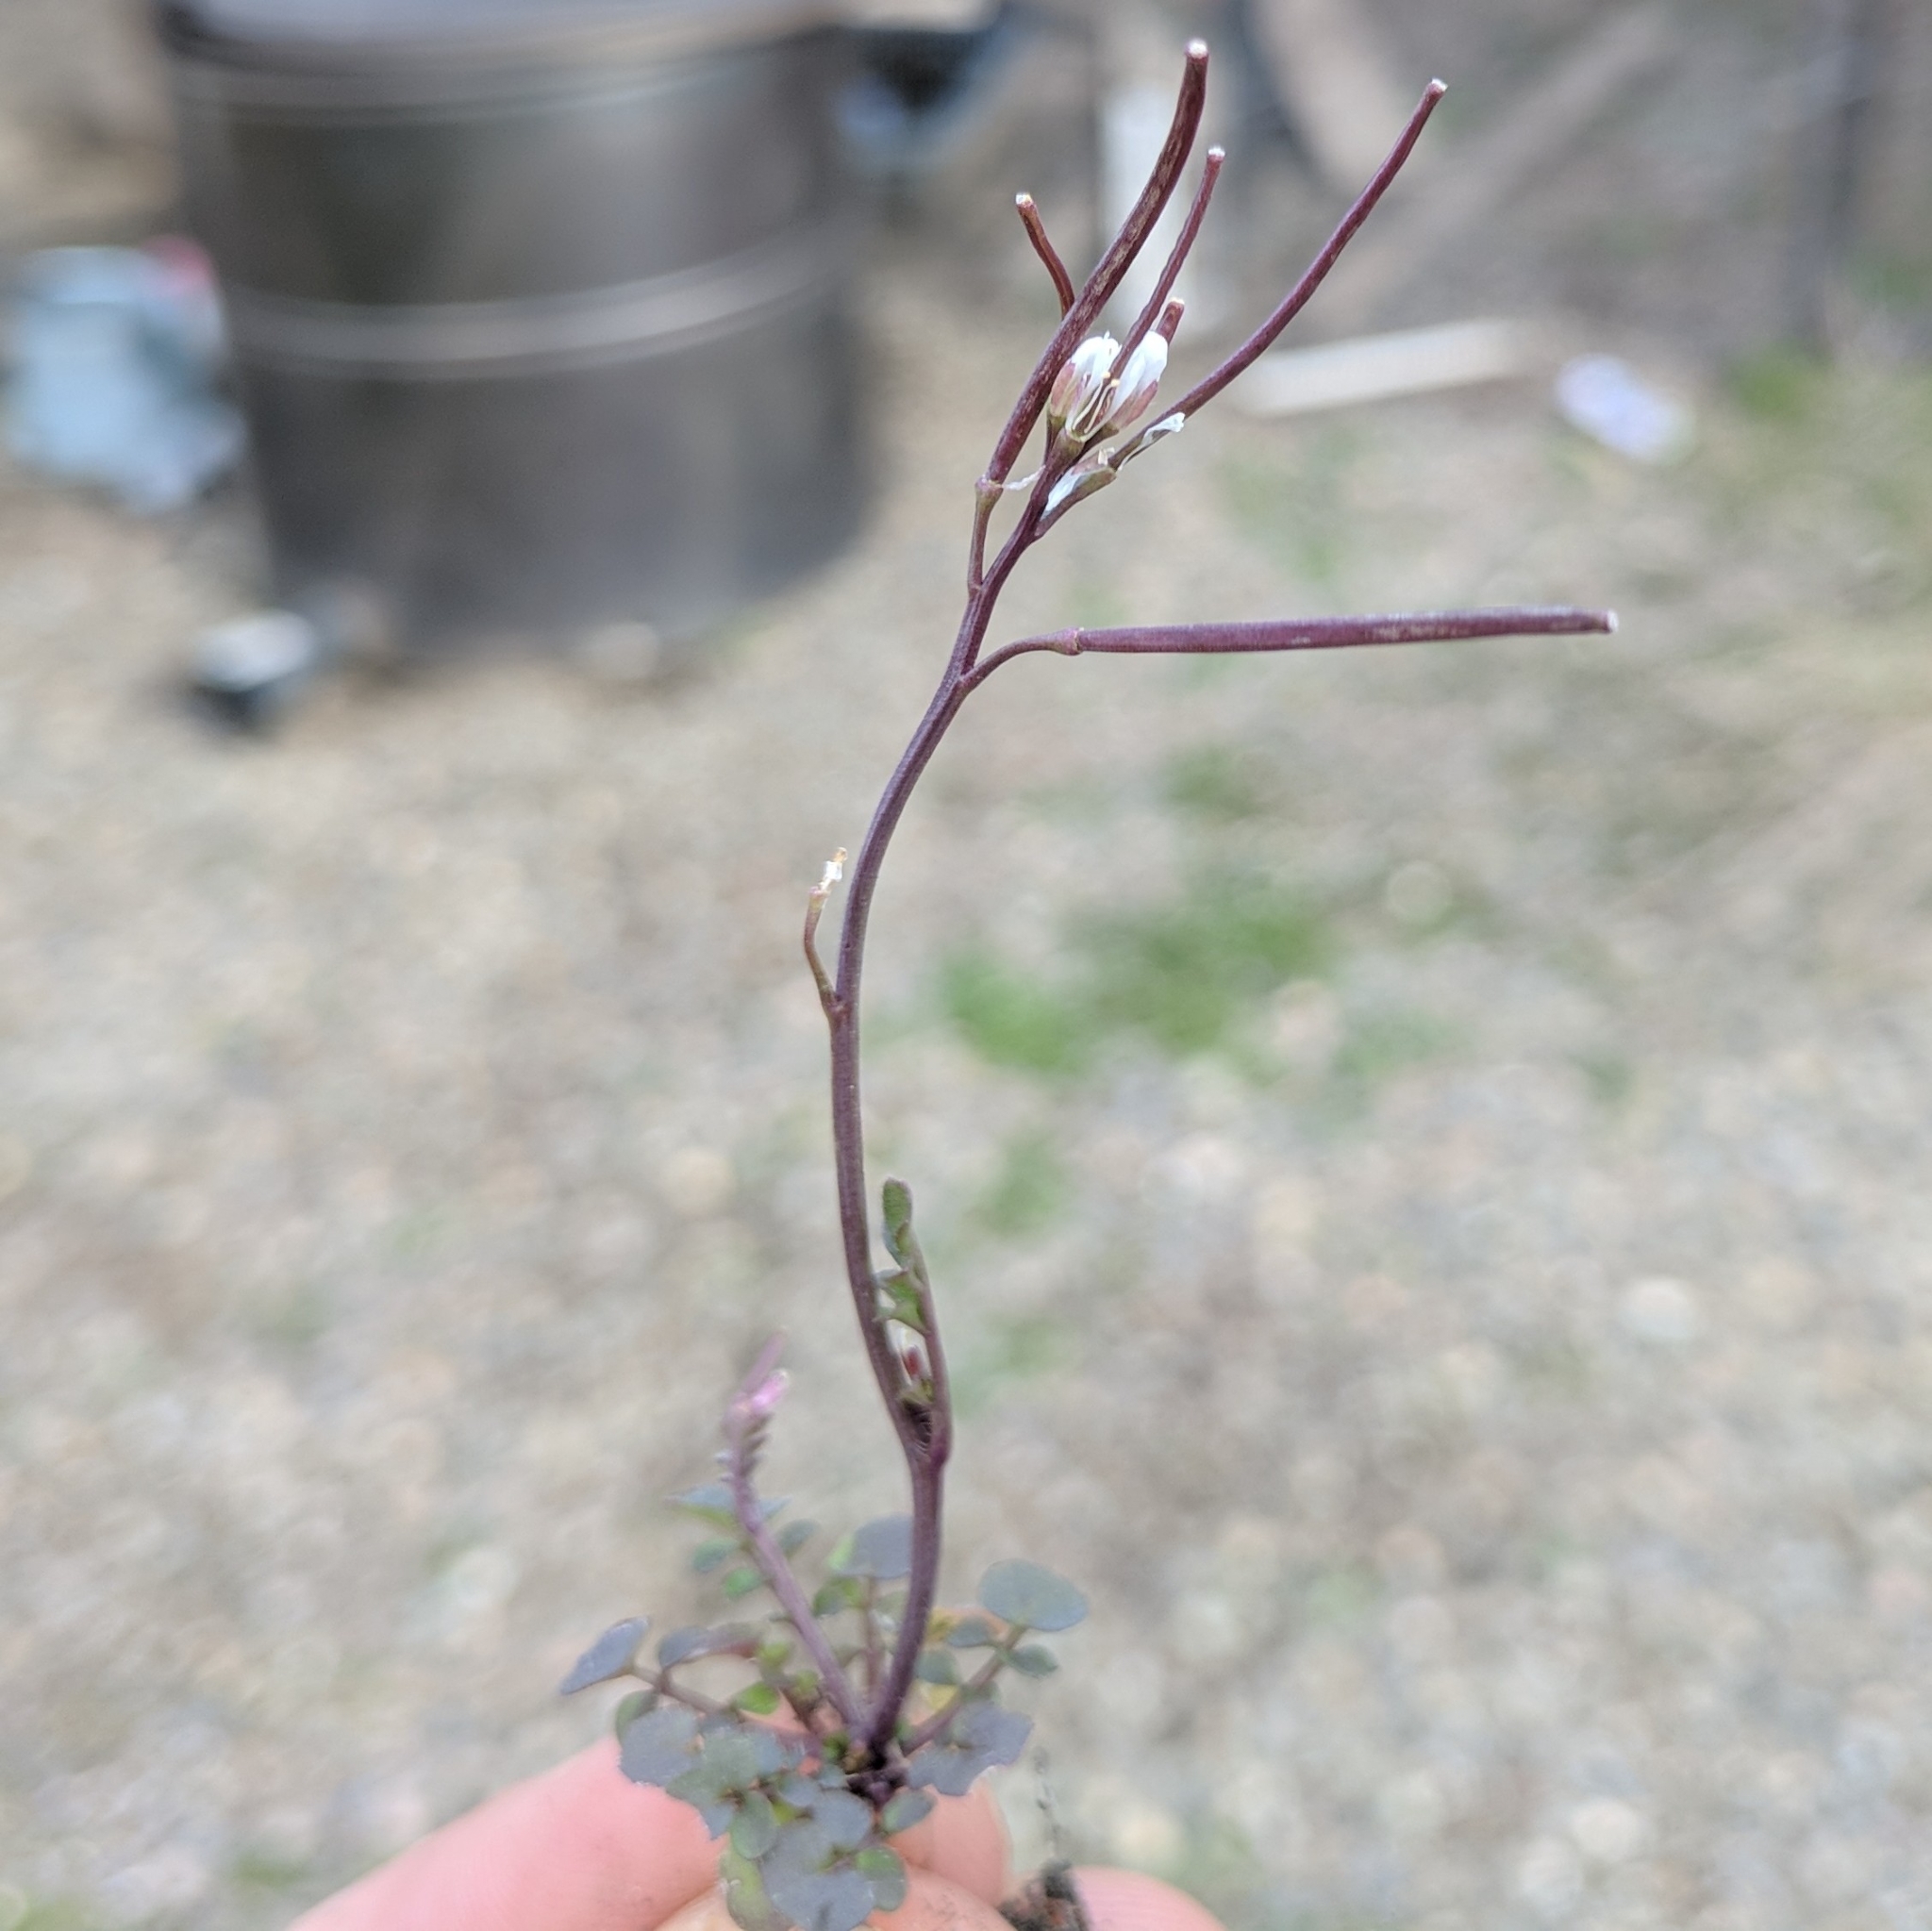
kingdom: Plantae
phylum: Tracheophyta
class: Magnoliopsida
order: Brassicales
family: Brassicaceae
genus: Cardamine
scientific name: Cardamine hirsuta
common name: Hairy bittercress
